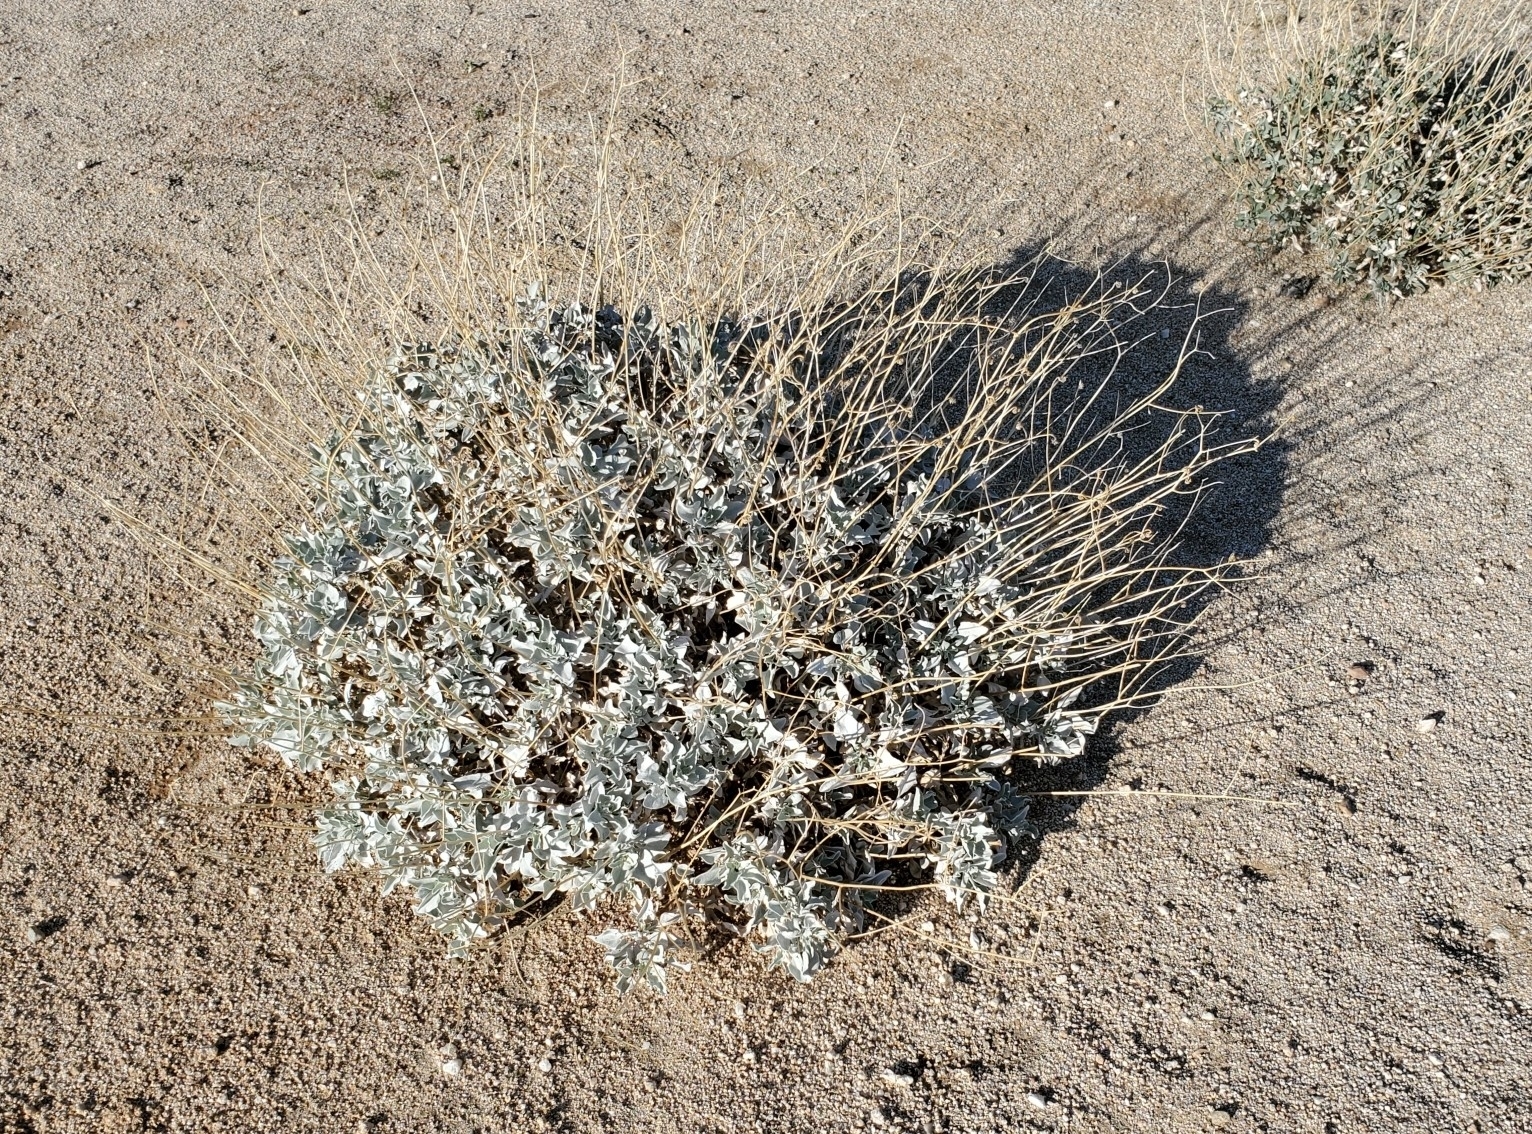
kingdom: Plantae
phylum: Tracheophyta
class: Magnoliopsida
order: Asterales
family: Asteraceae
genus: Encelia
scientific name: Encelia farinosa
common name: Brittlebush
